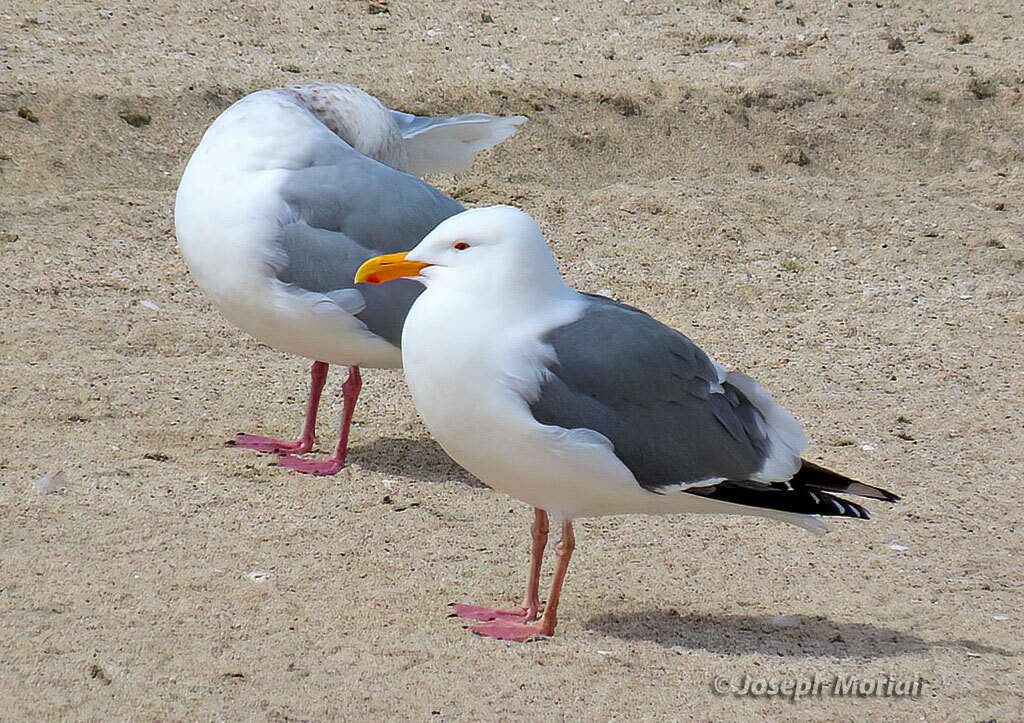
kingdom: Animalia
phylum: Chordata
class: Aves
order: Charadriiformes
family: Laridae
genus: Larus
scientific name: Larus occidentalis
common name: Western gull
